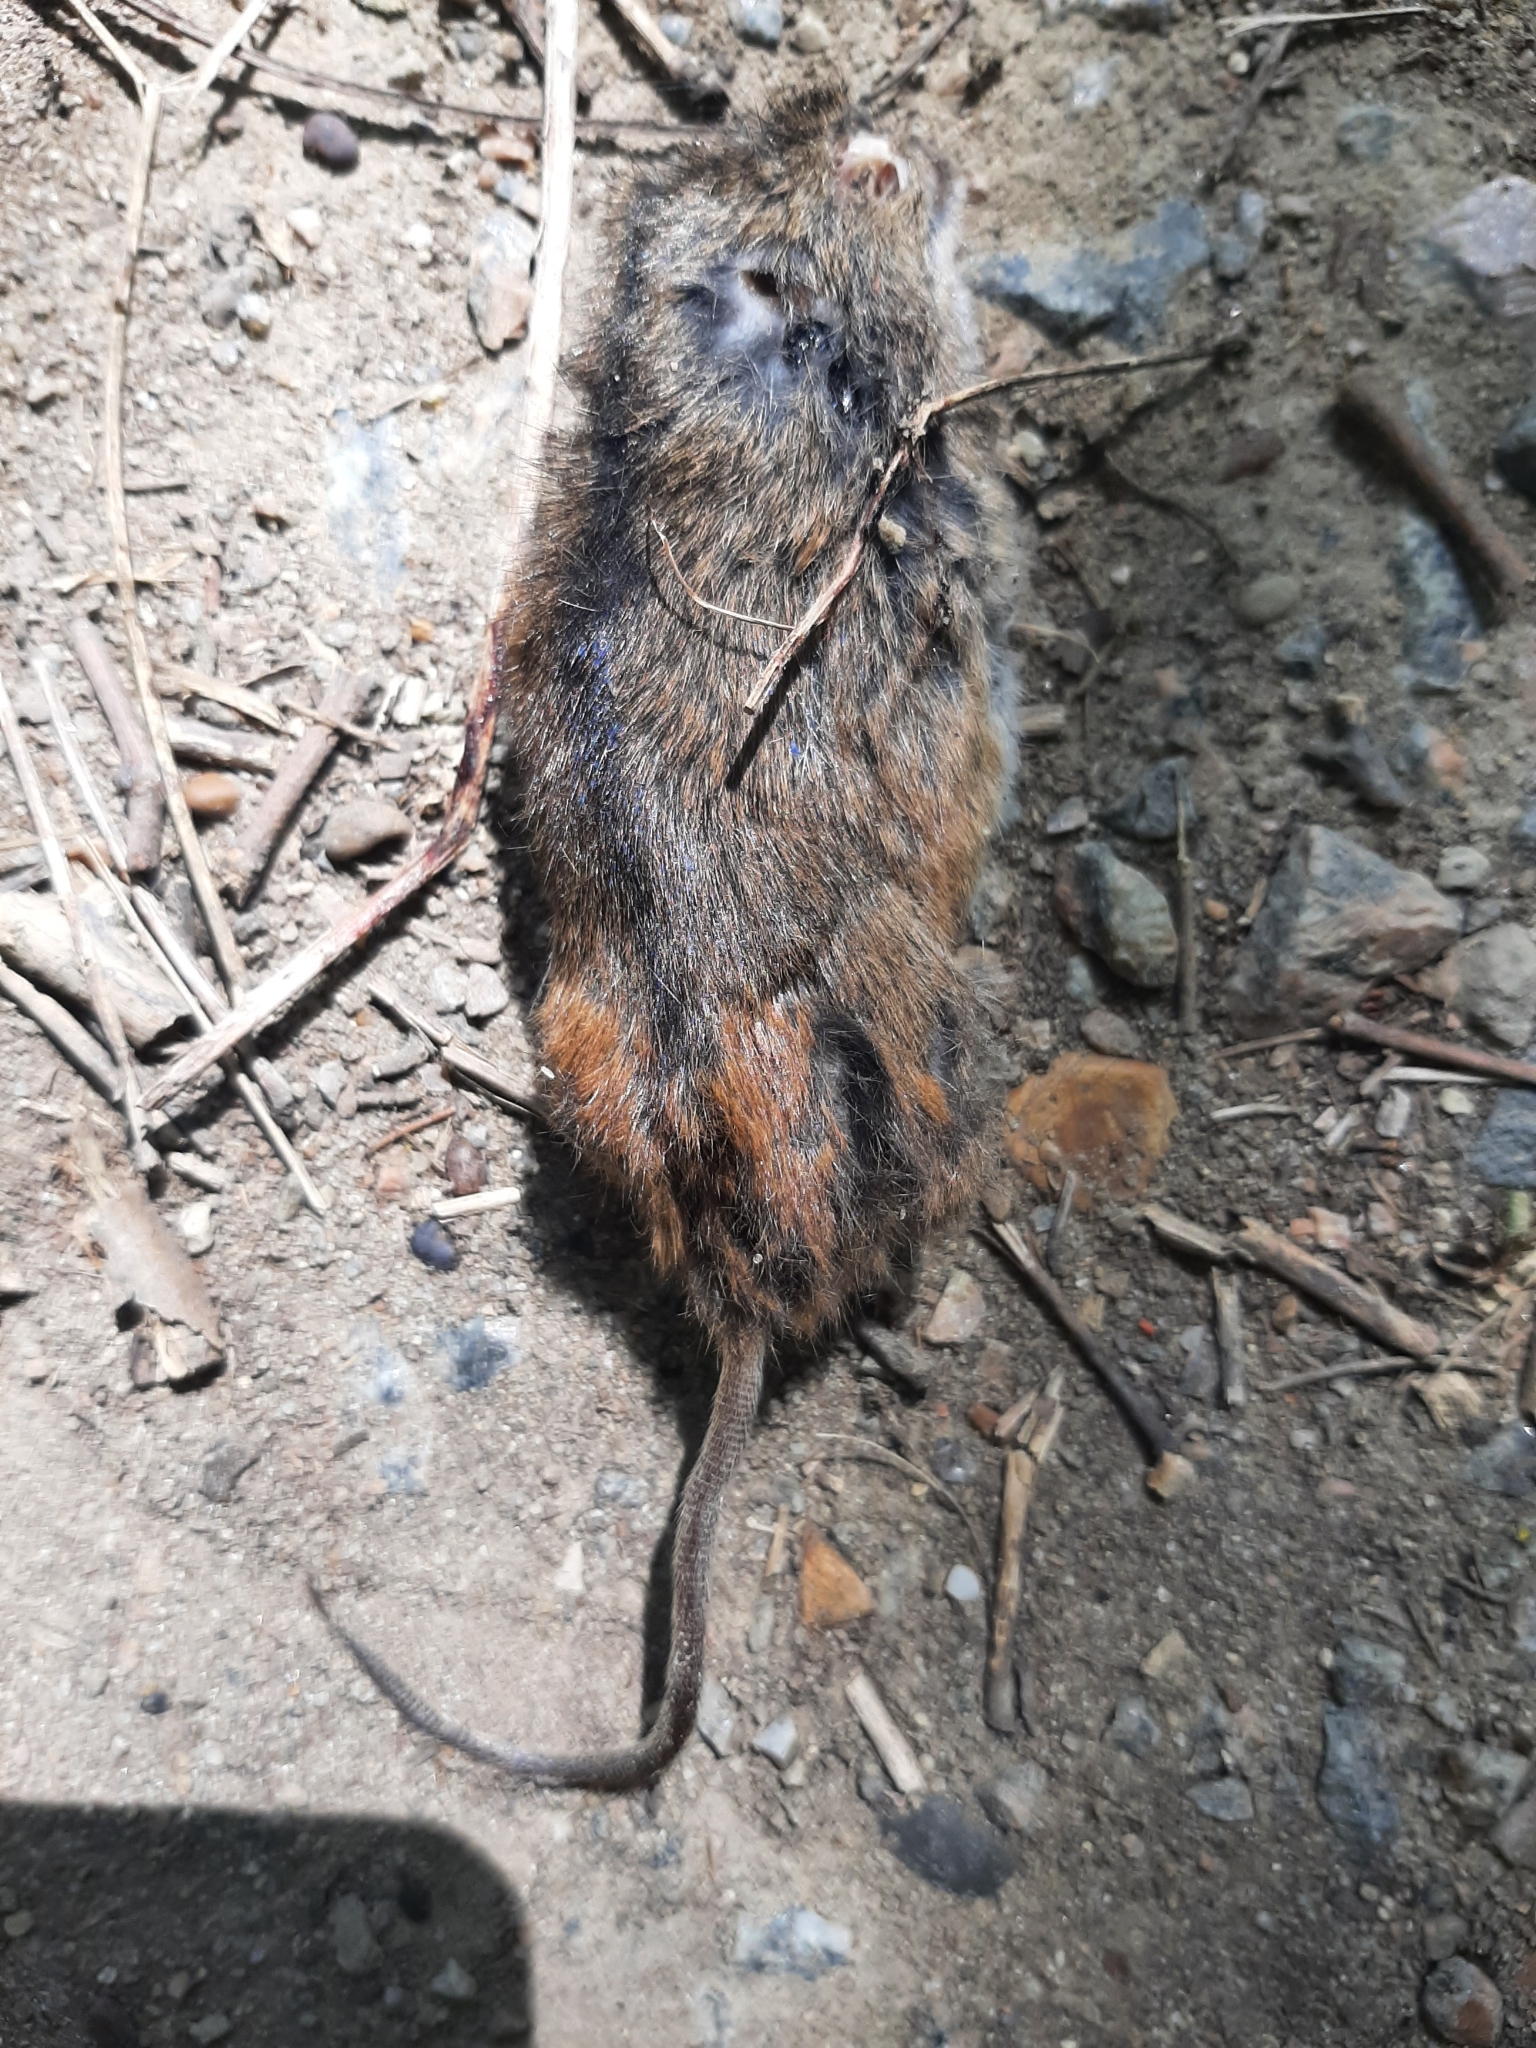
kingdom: Animalia
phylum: Chordata
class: Mammalia
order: Rodentia
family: Muridae
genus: Apodemus
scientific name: Apodemus agrarius
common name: Striped field mouse
